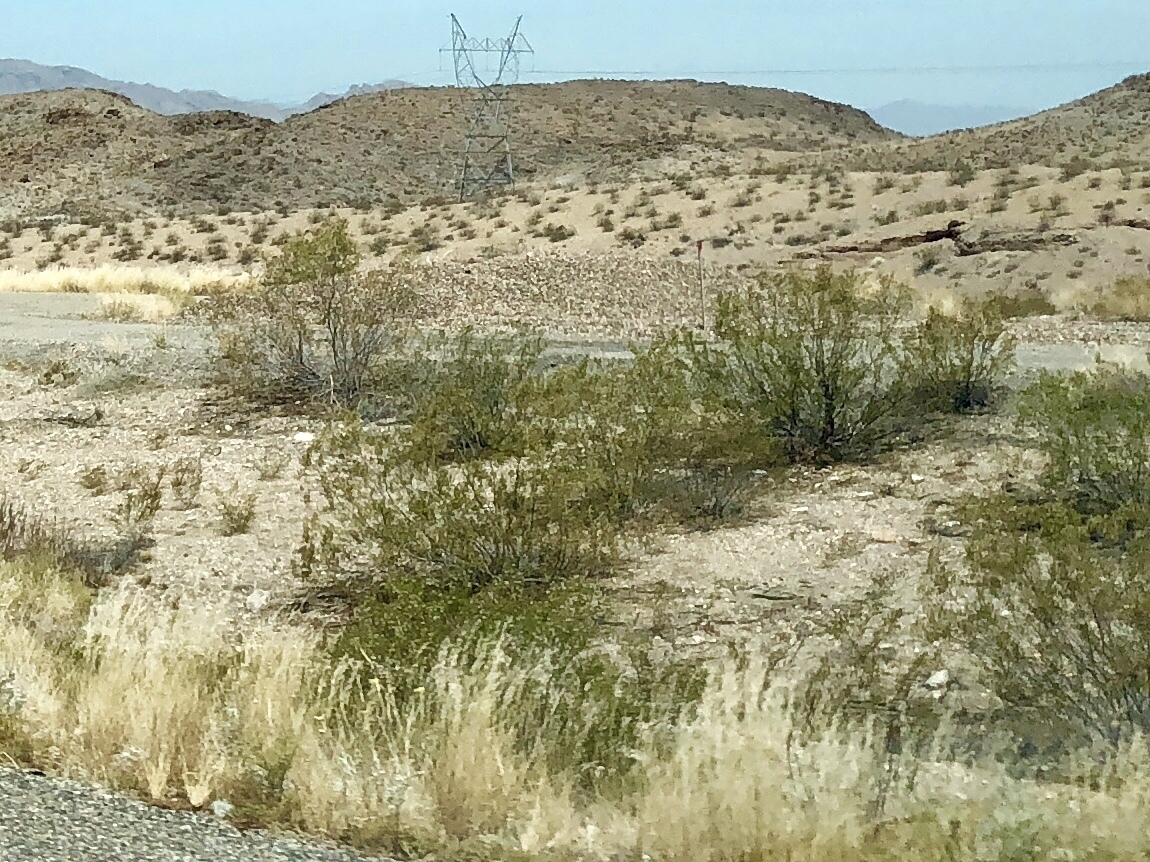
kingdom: Plantae
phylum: Tracheophyta
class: Magnoliopsida
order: Zygophyllales
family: Zygophyllaceae
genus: Larrea
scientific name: Larrea tridentata
